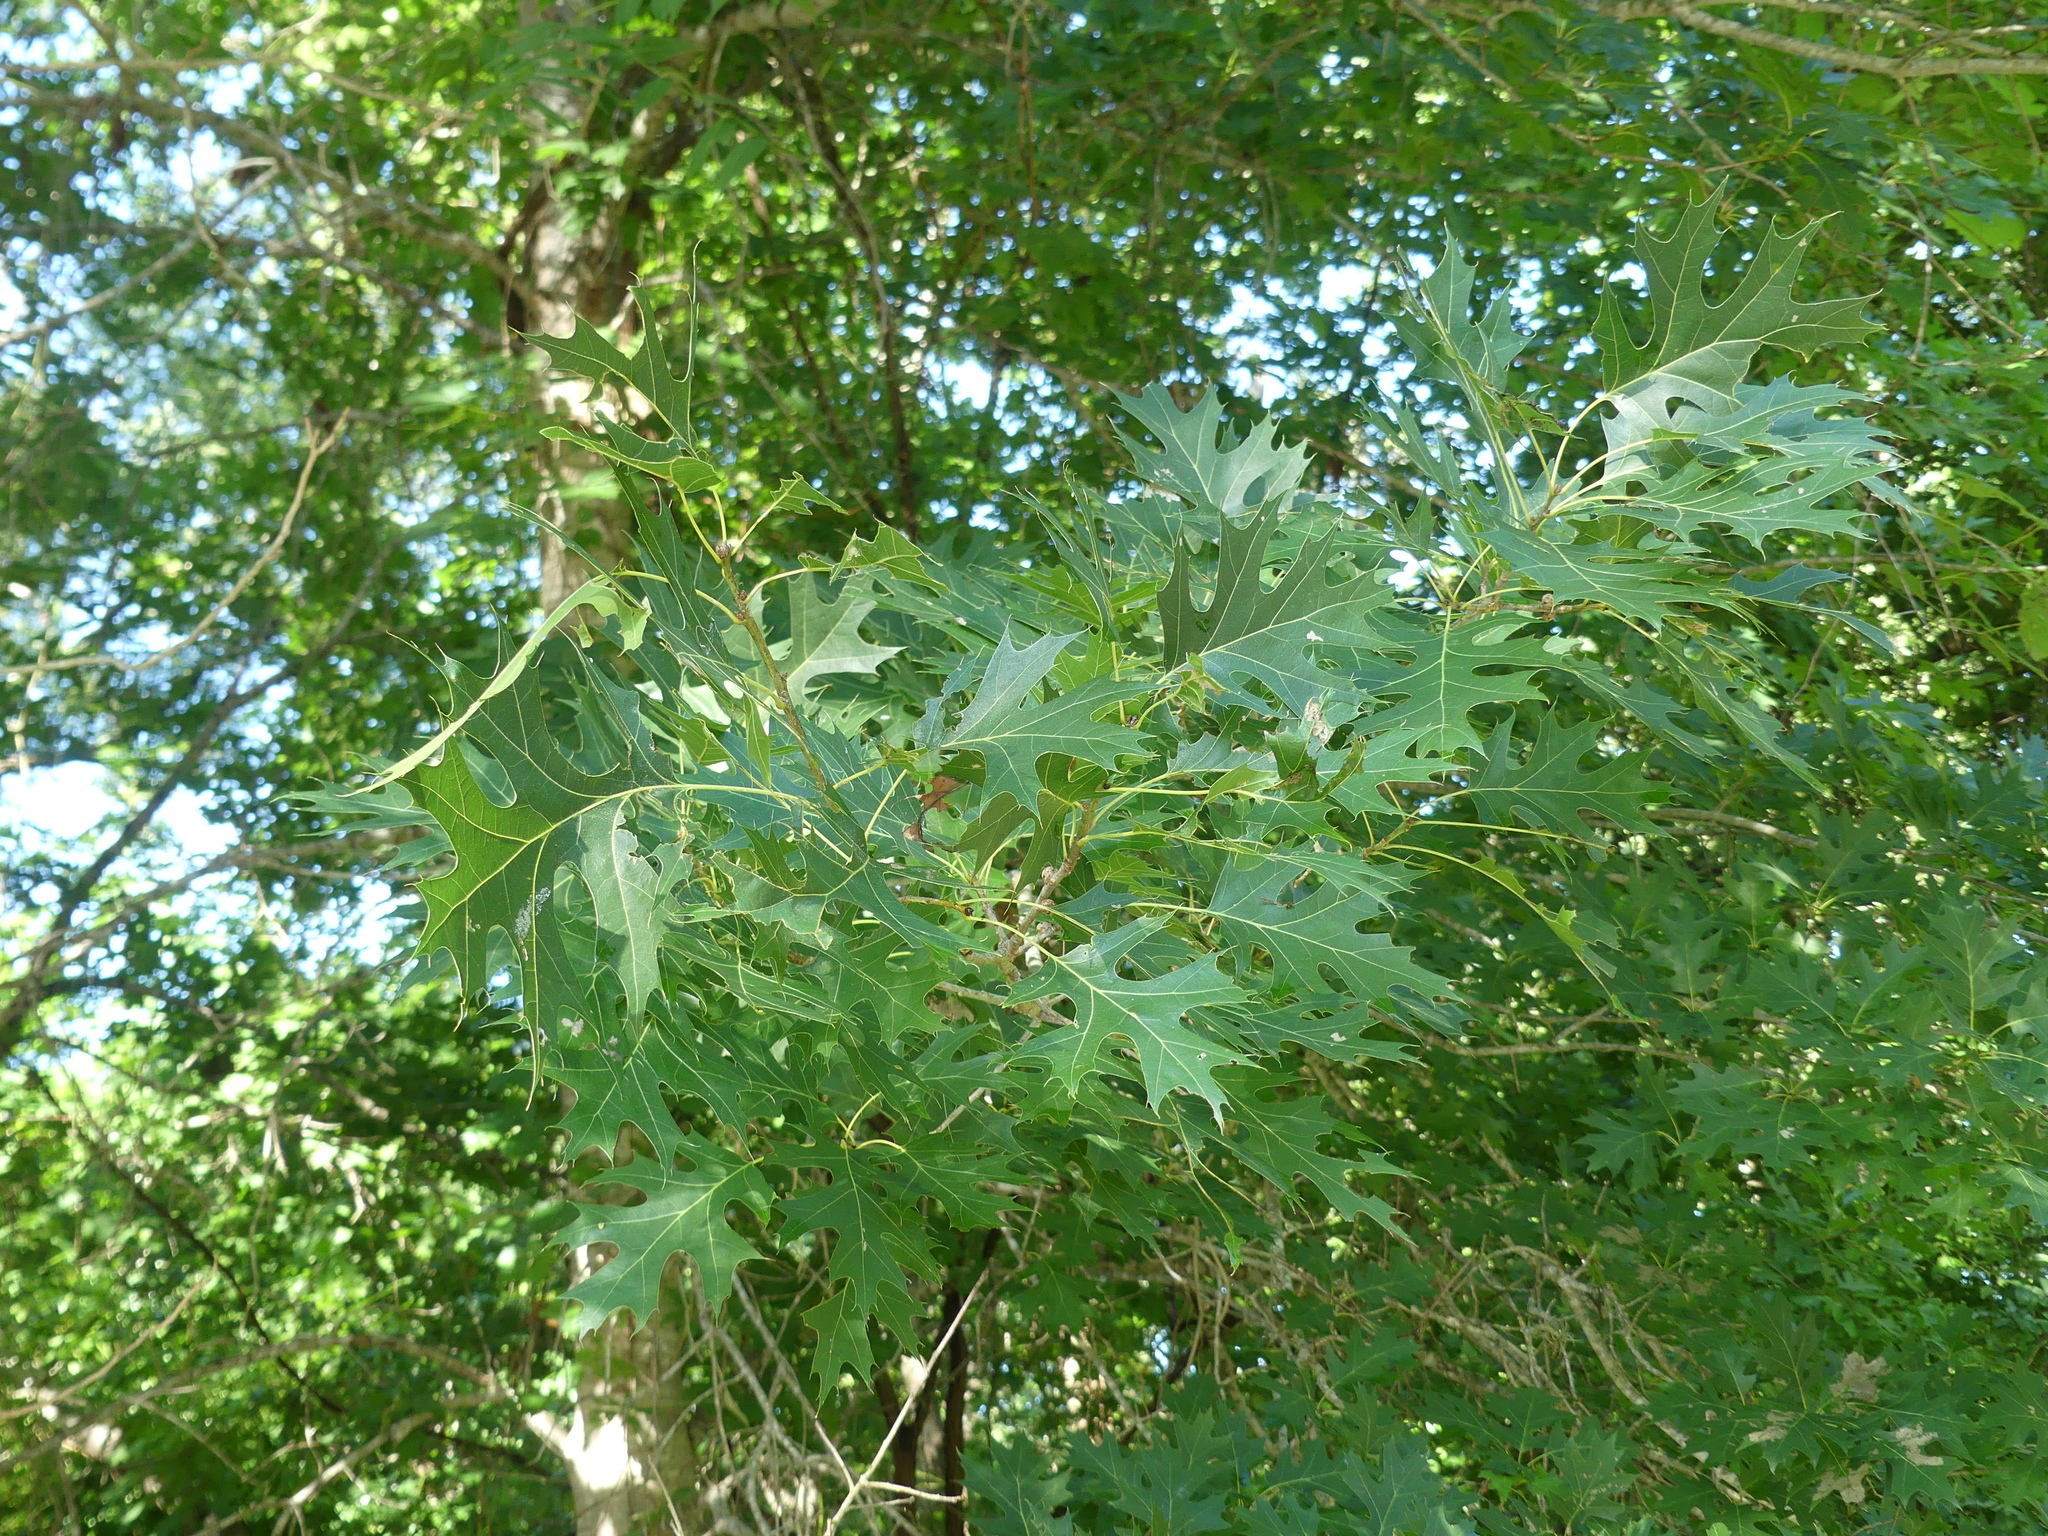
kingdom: Plantae
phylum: Tracheophyta
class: Magnoliopsida
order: Fagales
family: Fagaceae
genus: Quercus
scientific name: Quercus shumardii
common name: Shumard oak
